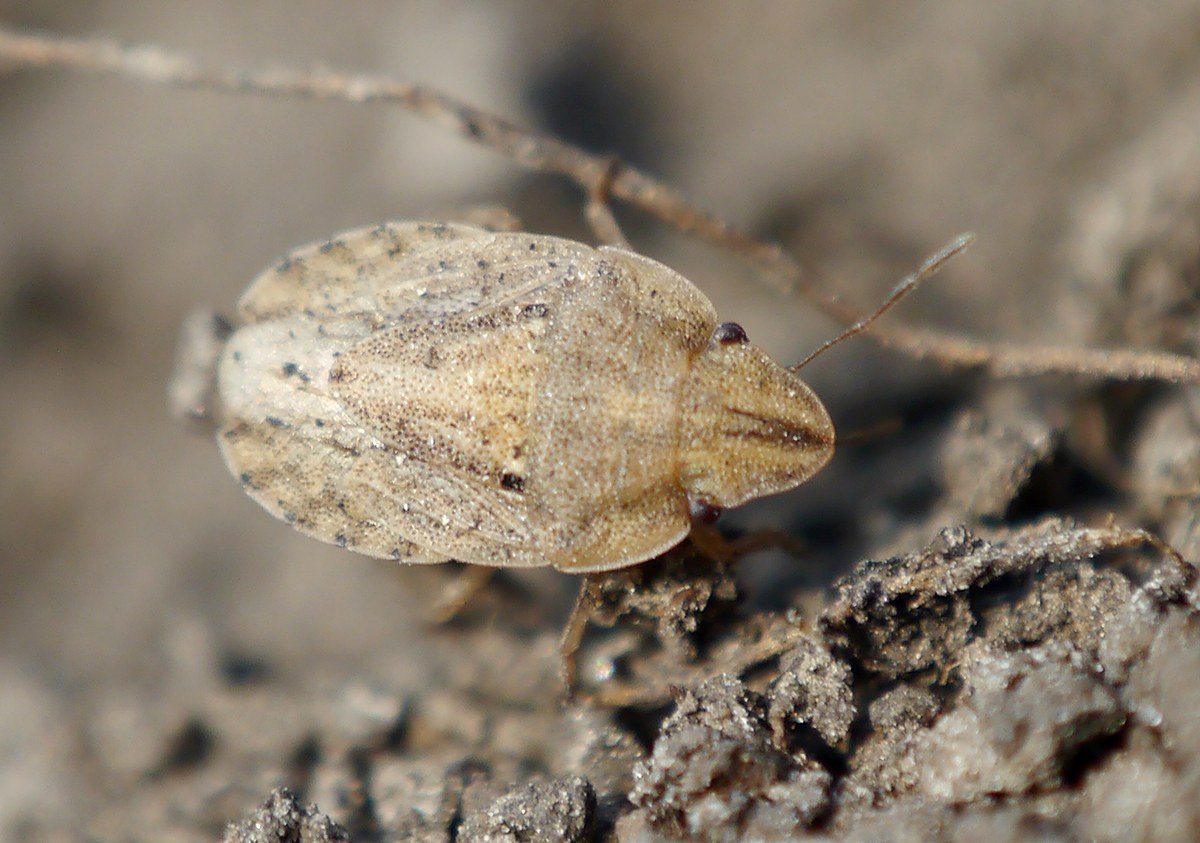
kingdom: Animalia
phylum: Arthropoda
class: Insecta
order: Hemiptera
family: Pentatomidae
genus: Sciocoris
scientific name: Sciocoris sulcatus
